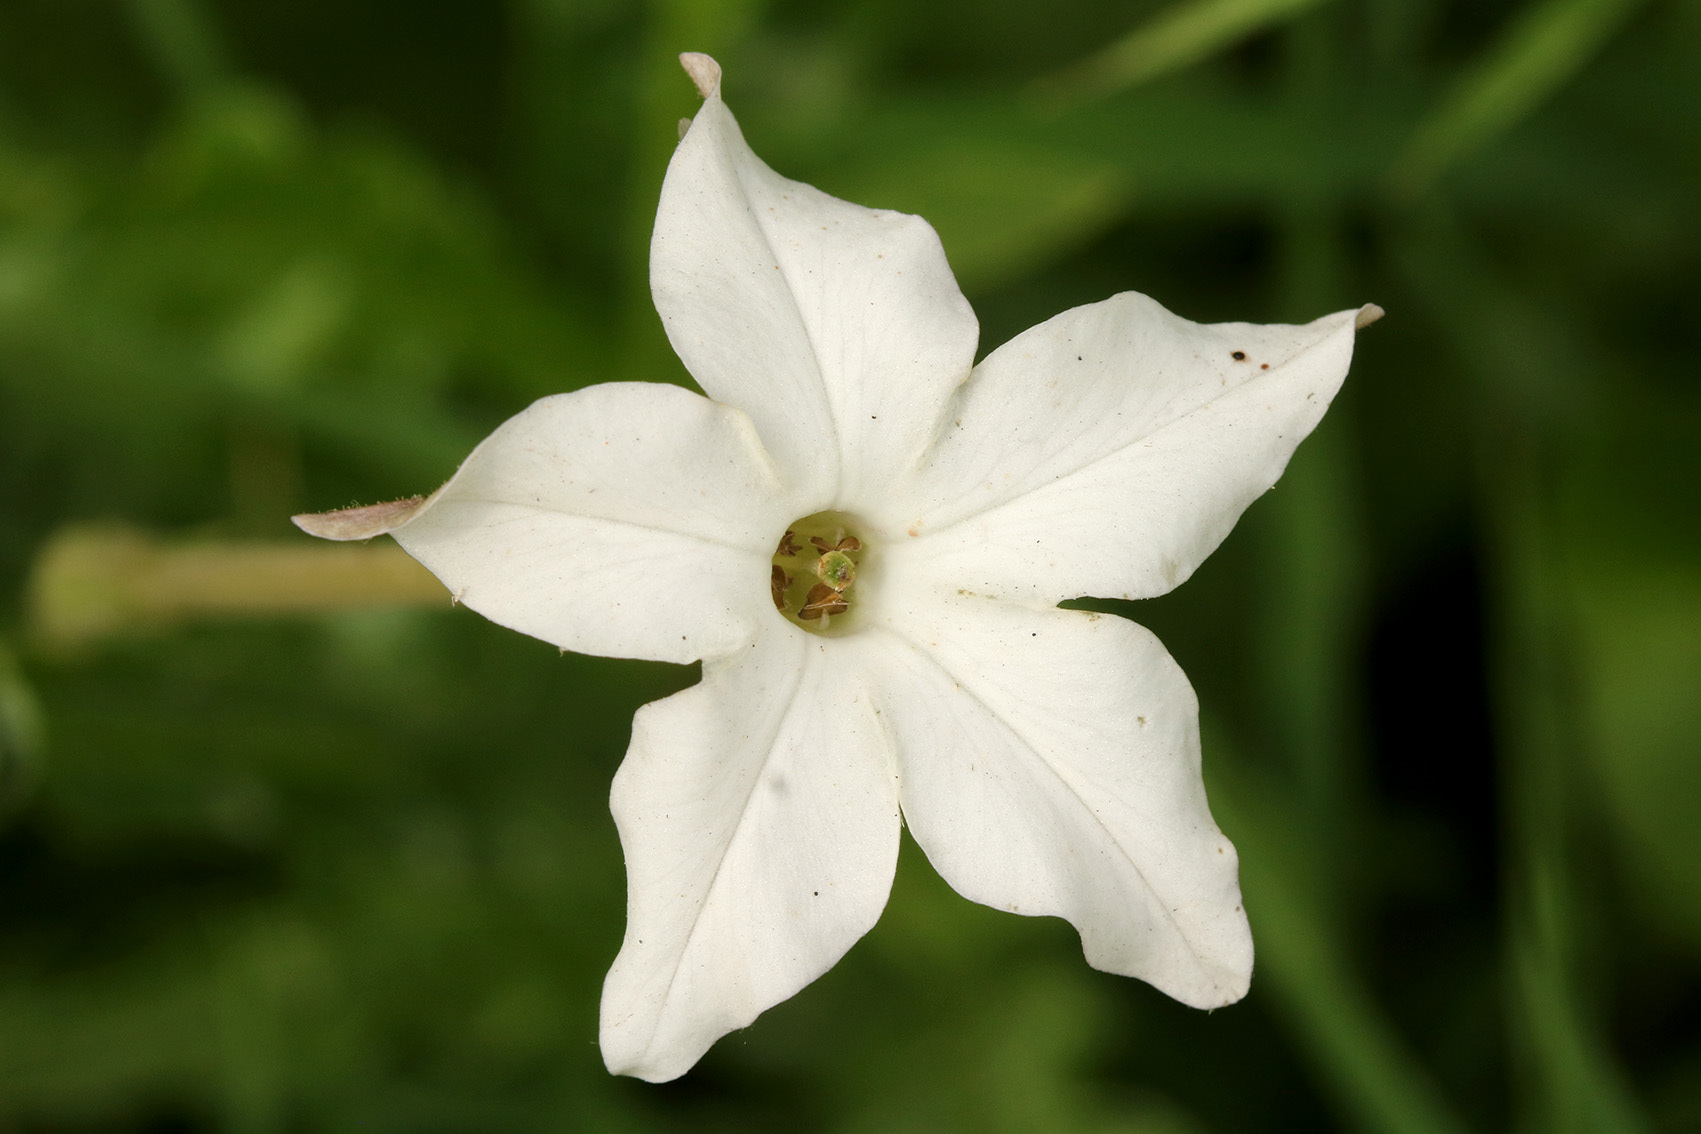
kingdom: Plantae
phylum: Tracheophyta
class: Magnoliopsida
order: Solanales
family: Solanaceae
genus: Nicotiana
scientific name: Nicotiana longiflora
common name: Long-flowered tobacco
